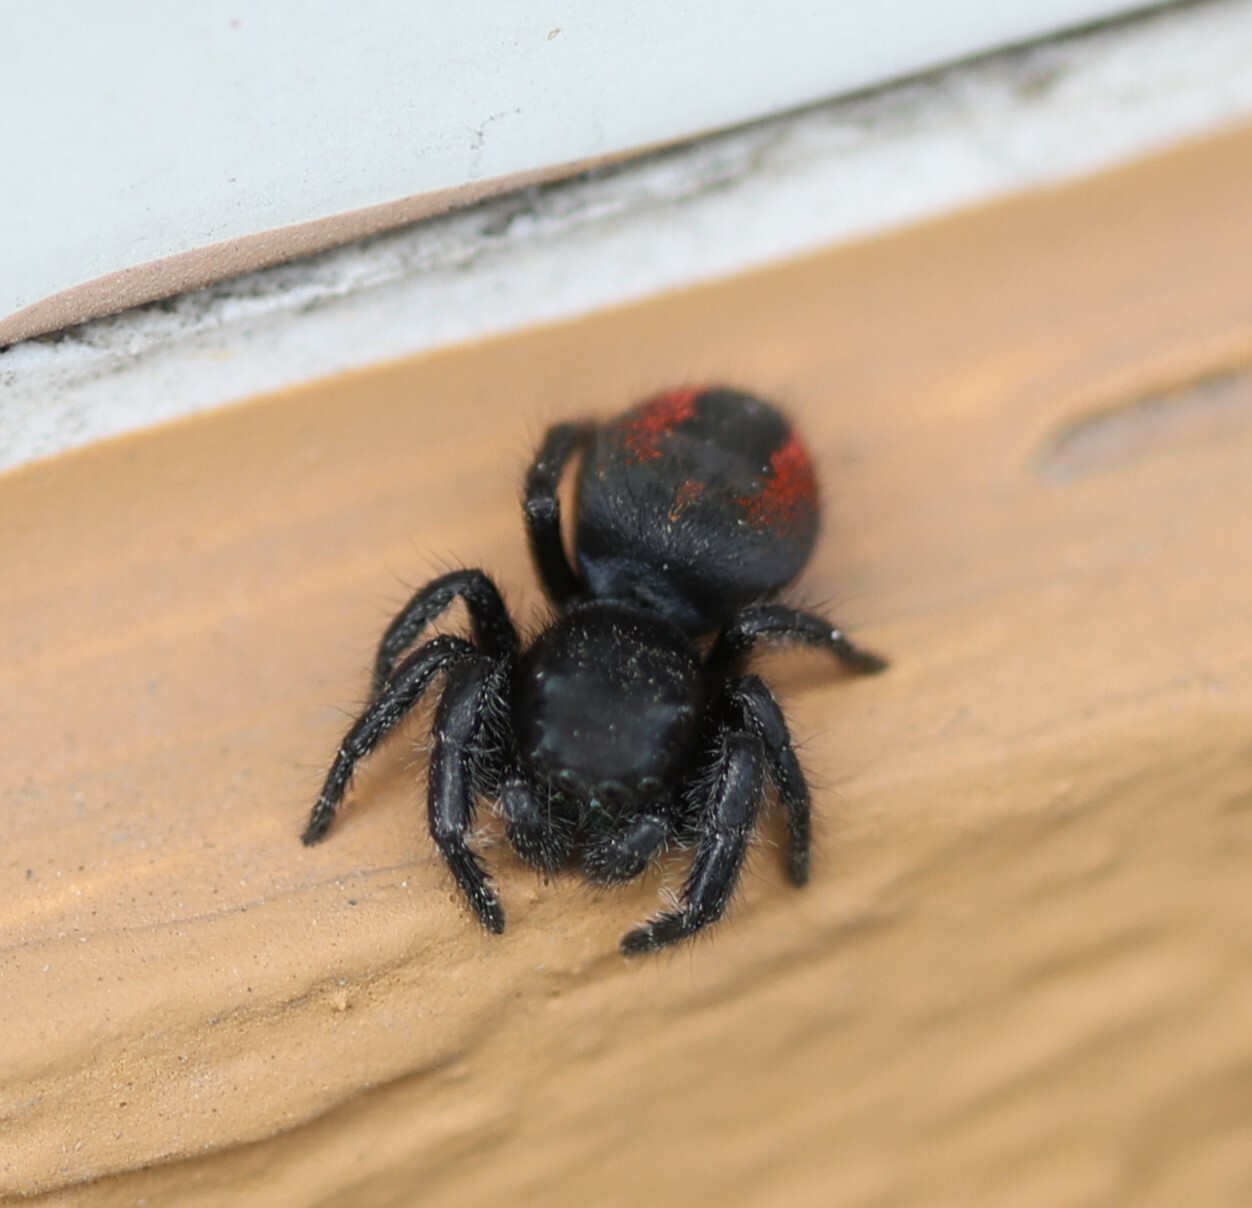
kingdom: Animalia
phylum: Arthropoda
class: Arachnida
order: Araneae
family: Salticidae
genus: Phidippus
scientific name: Phidippus johnsoni
